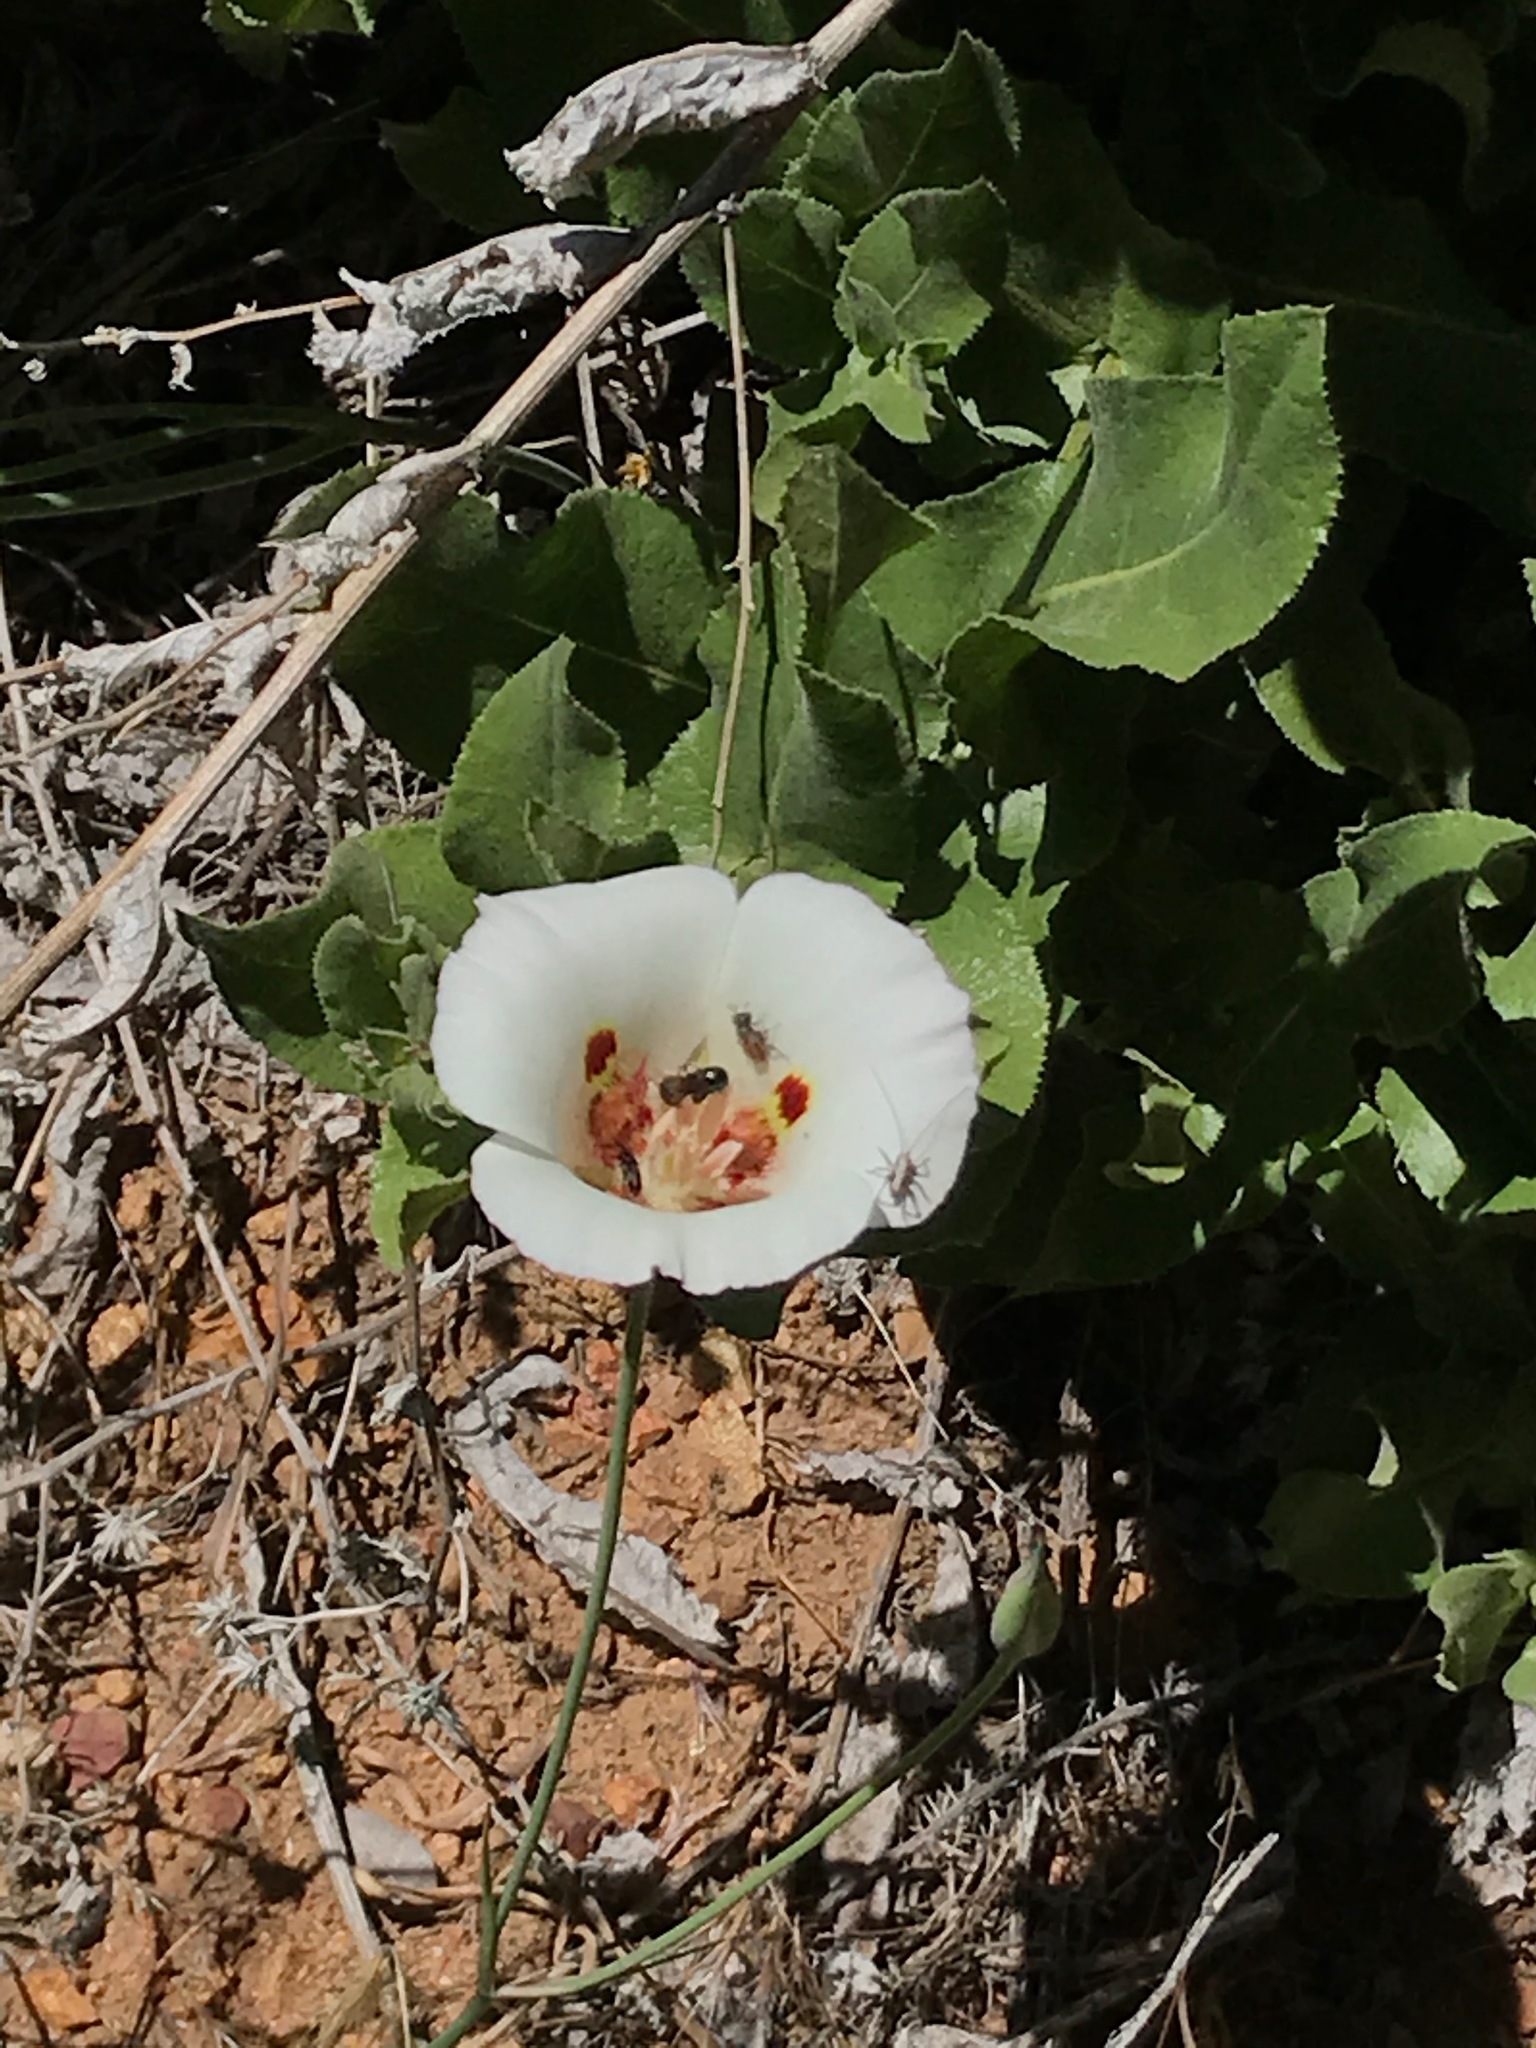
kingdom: Plantae
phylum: Tracheophyta
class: Liliopsida
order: Liliales
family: Liliaceae
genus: Calochortus
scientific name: Calochortus venustus
